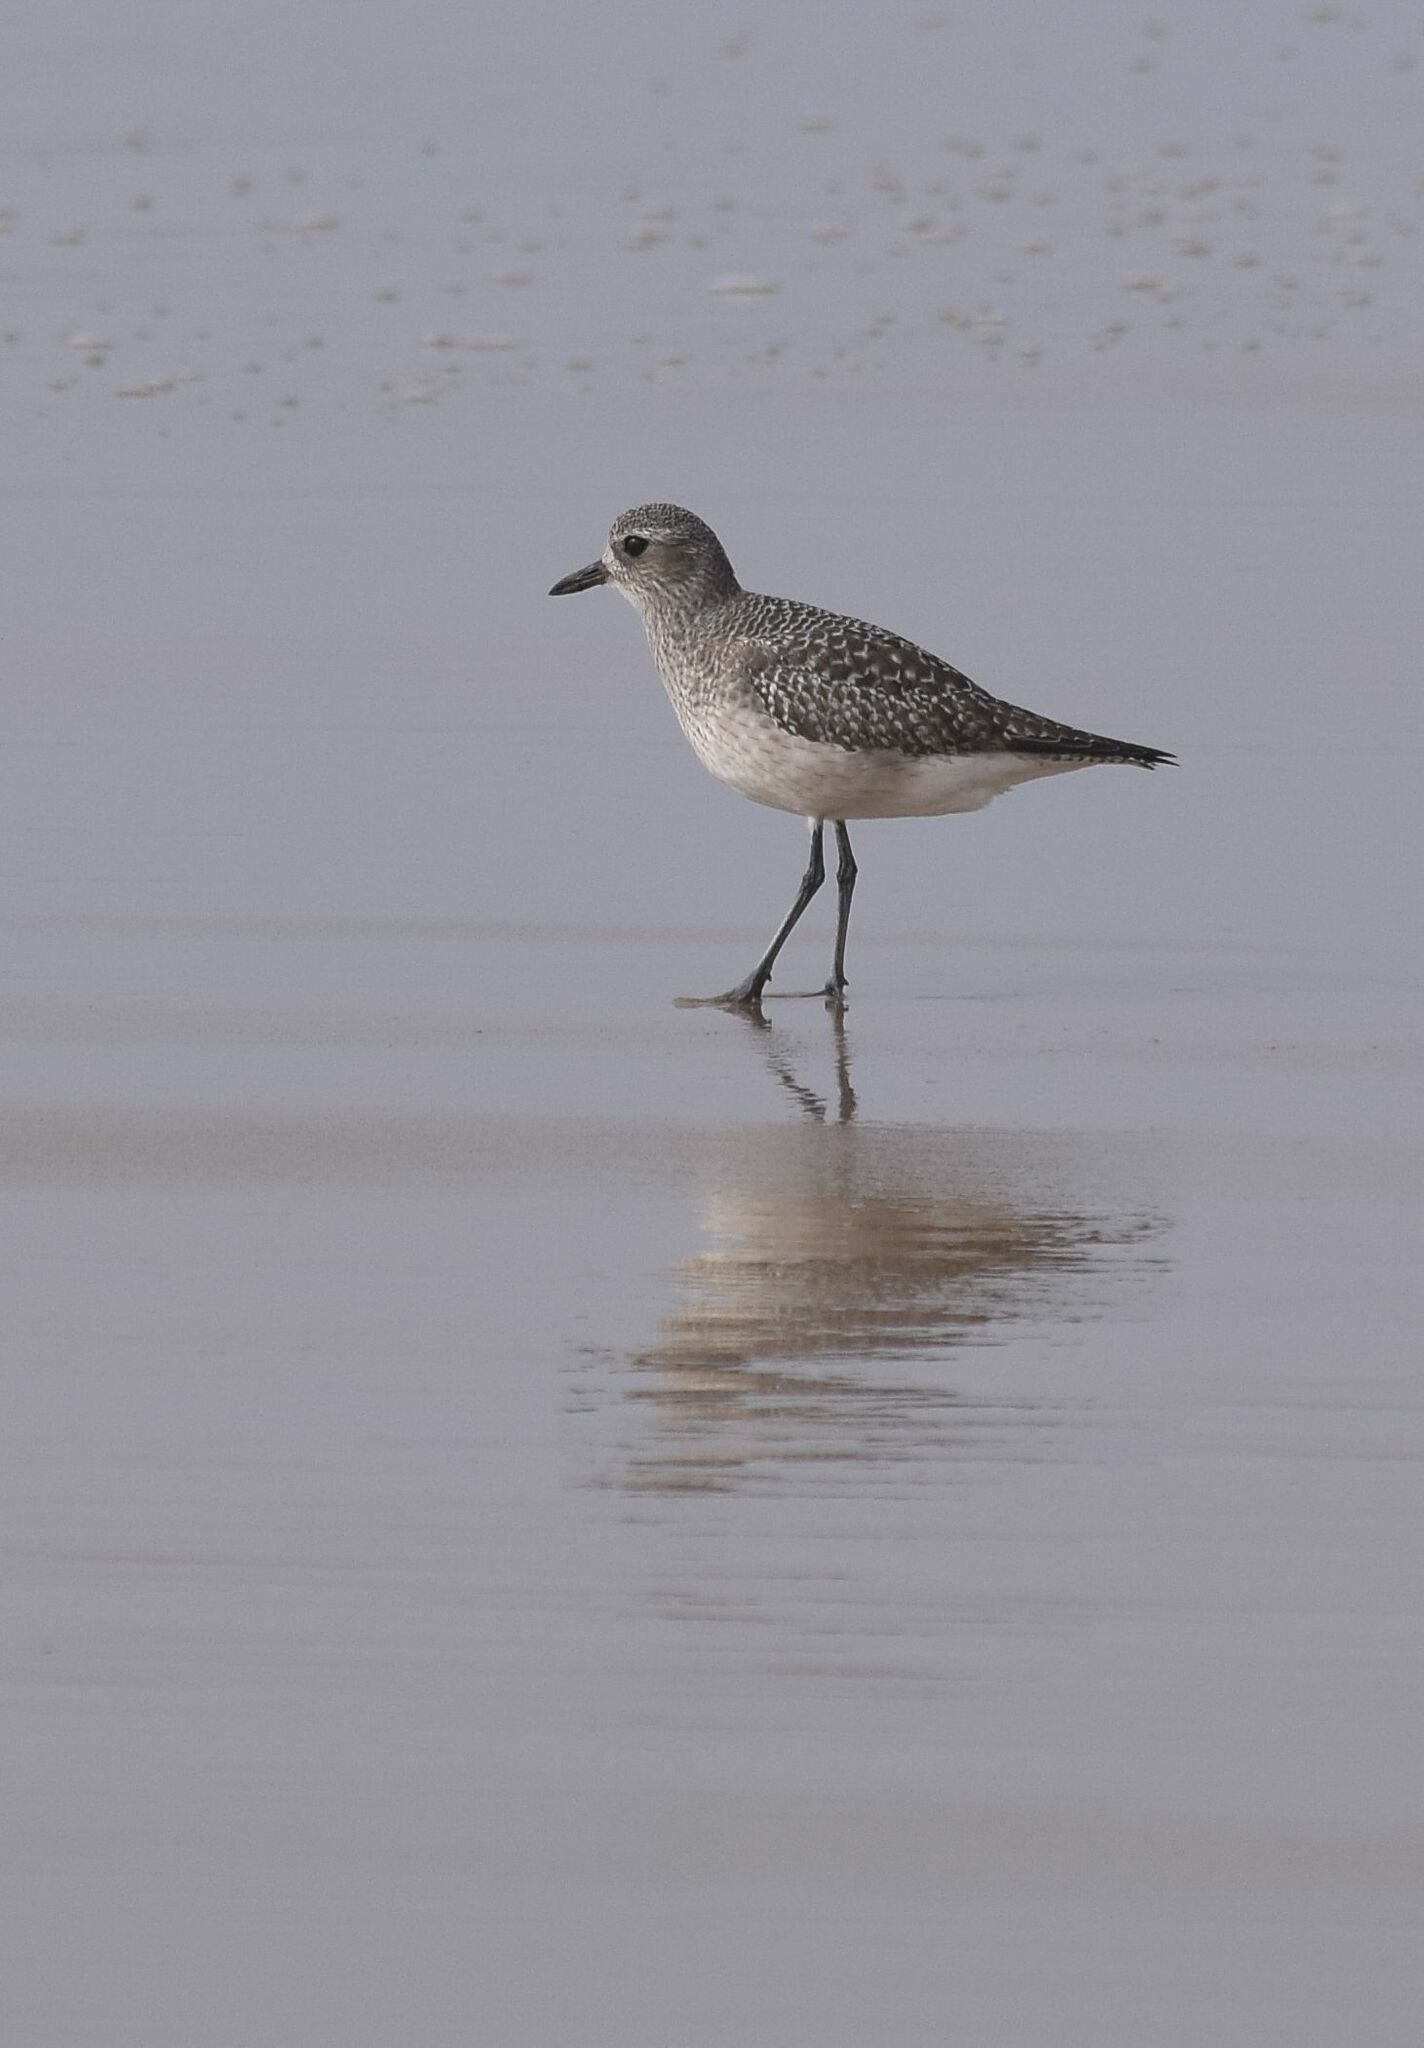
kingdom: Animalia
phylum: Chordata
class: Aves
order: Charadriiformes
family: Charadriidae
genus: Pluvialis
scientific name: Pluvialis squatarola
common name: Grey plover
